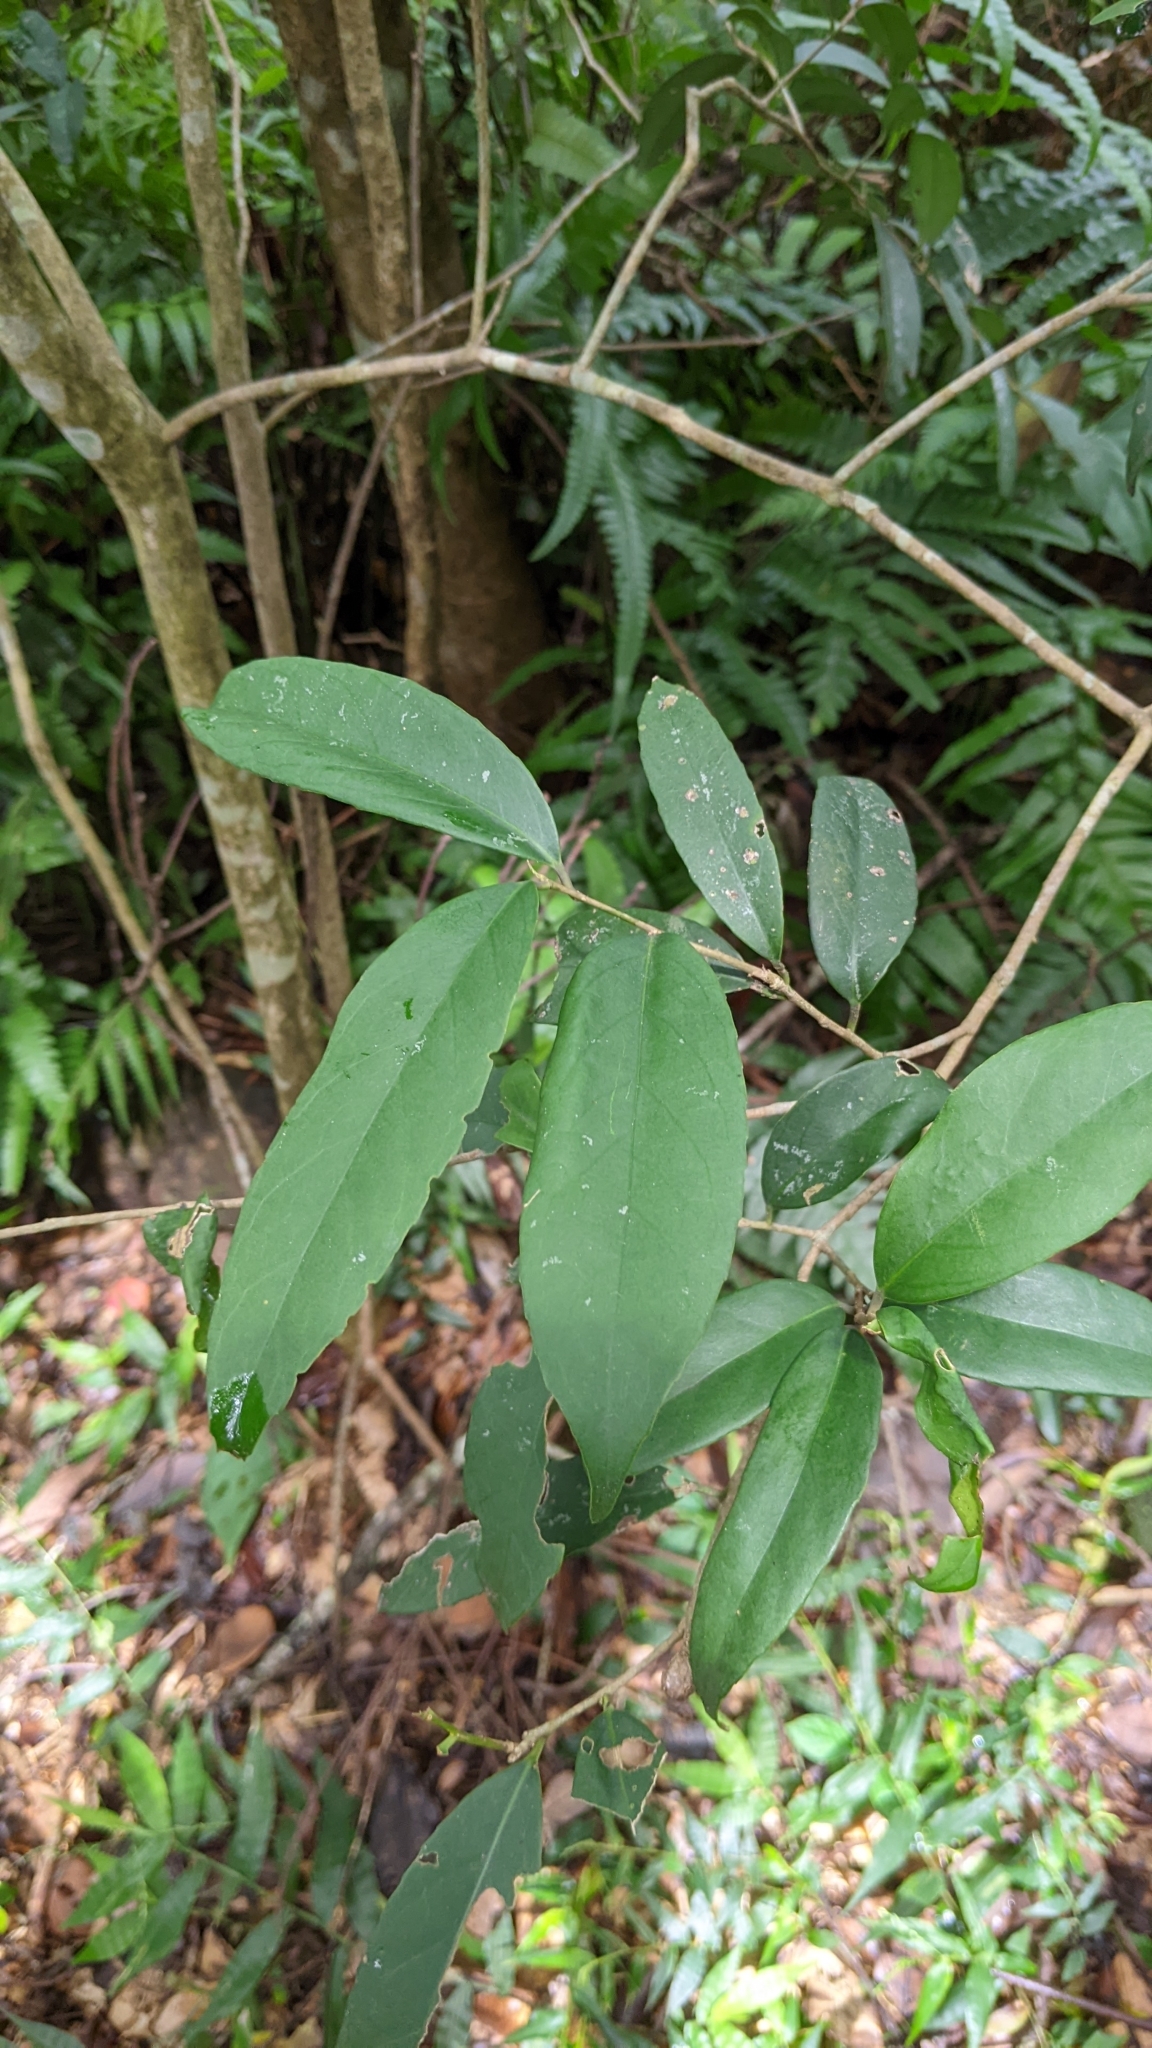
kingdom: Plantae
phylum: Tracheophyta
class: Magnoliopsida
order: Aquifoliales
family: Aquifoliaceae
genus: Ilex
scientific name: Ilex formosana
